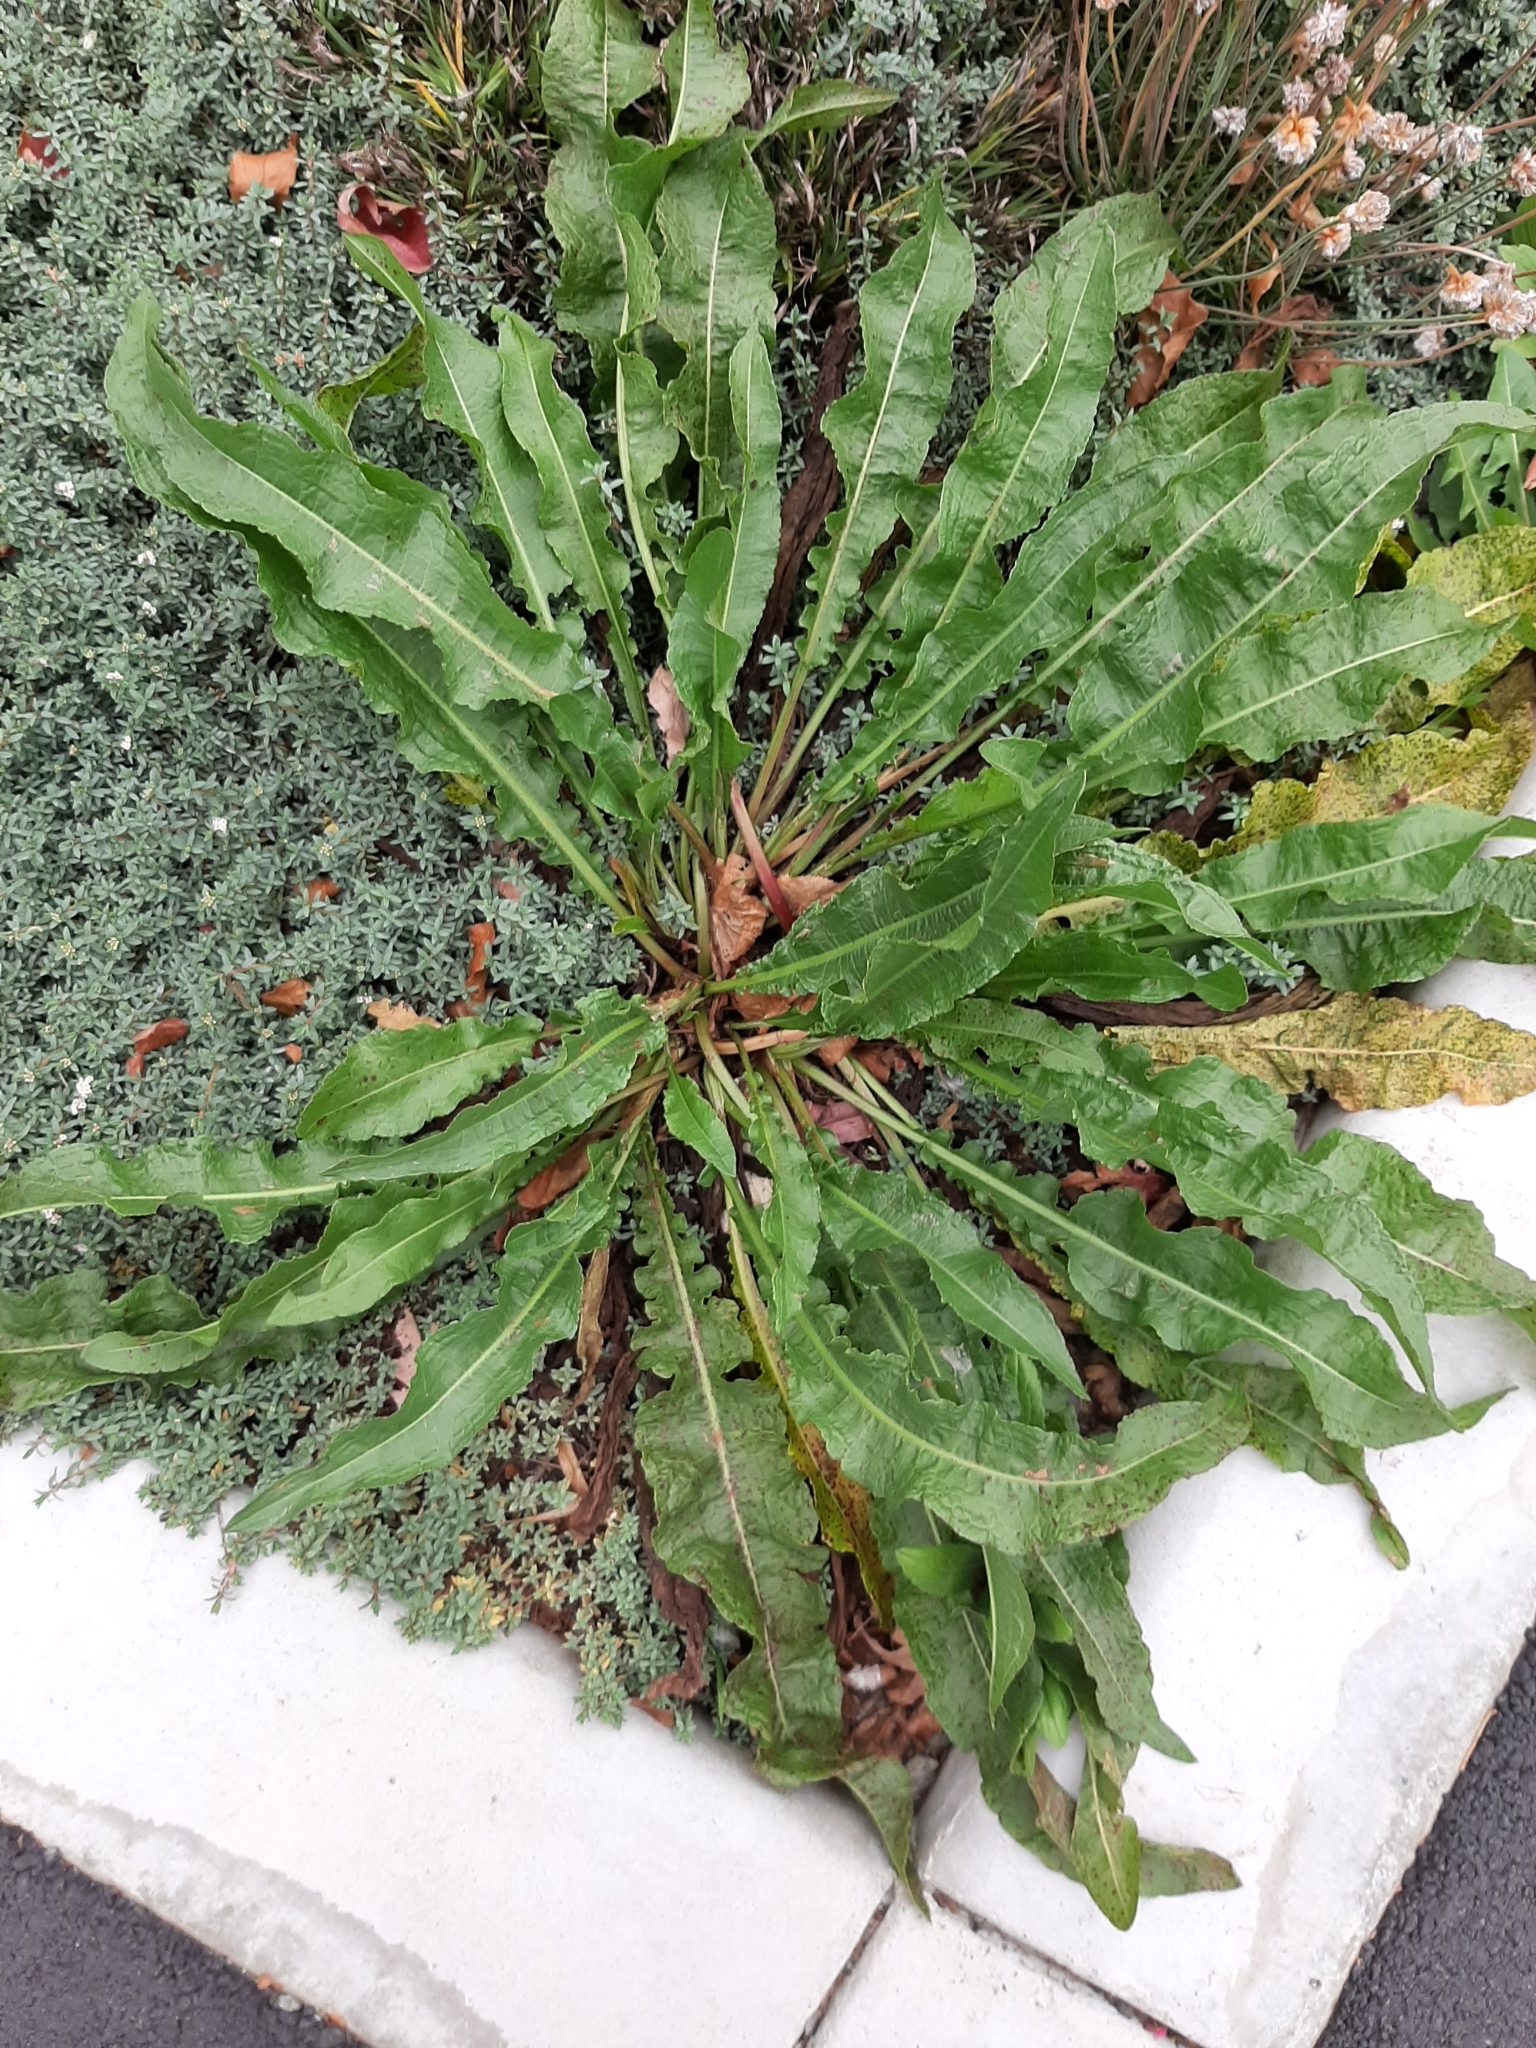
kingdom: Plantae
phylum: Tracheophyta
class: Magnoliopsida
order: Caryophyllales
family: Polygonaceae
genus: Rumex
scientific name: Rumex crispus
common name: Curled dock
